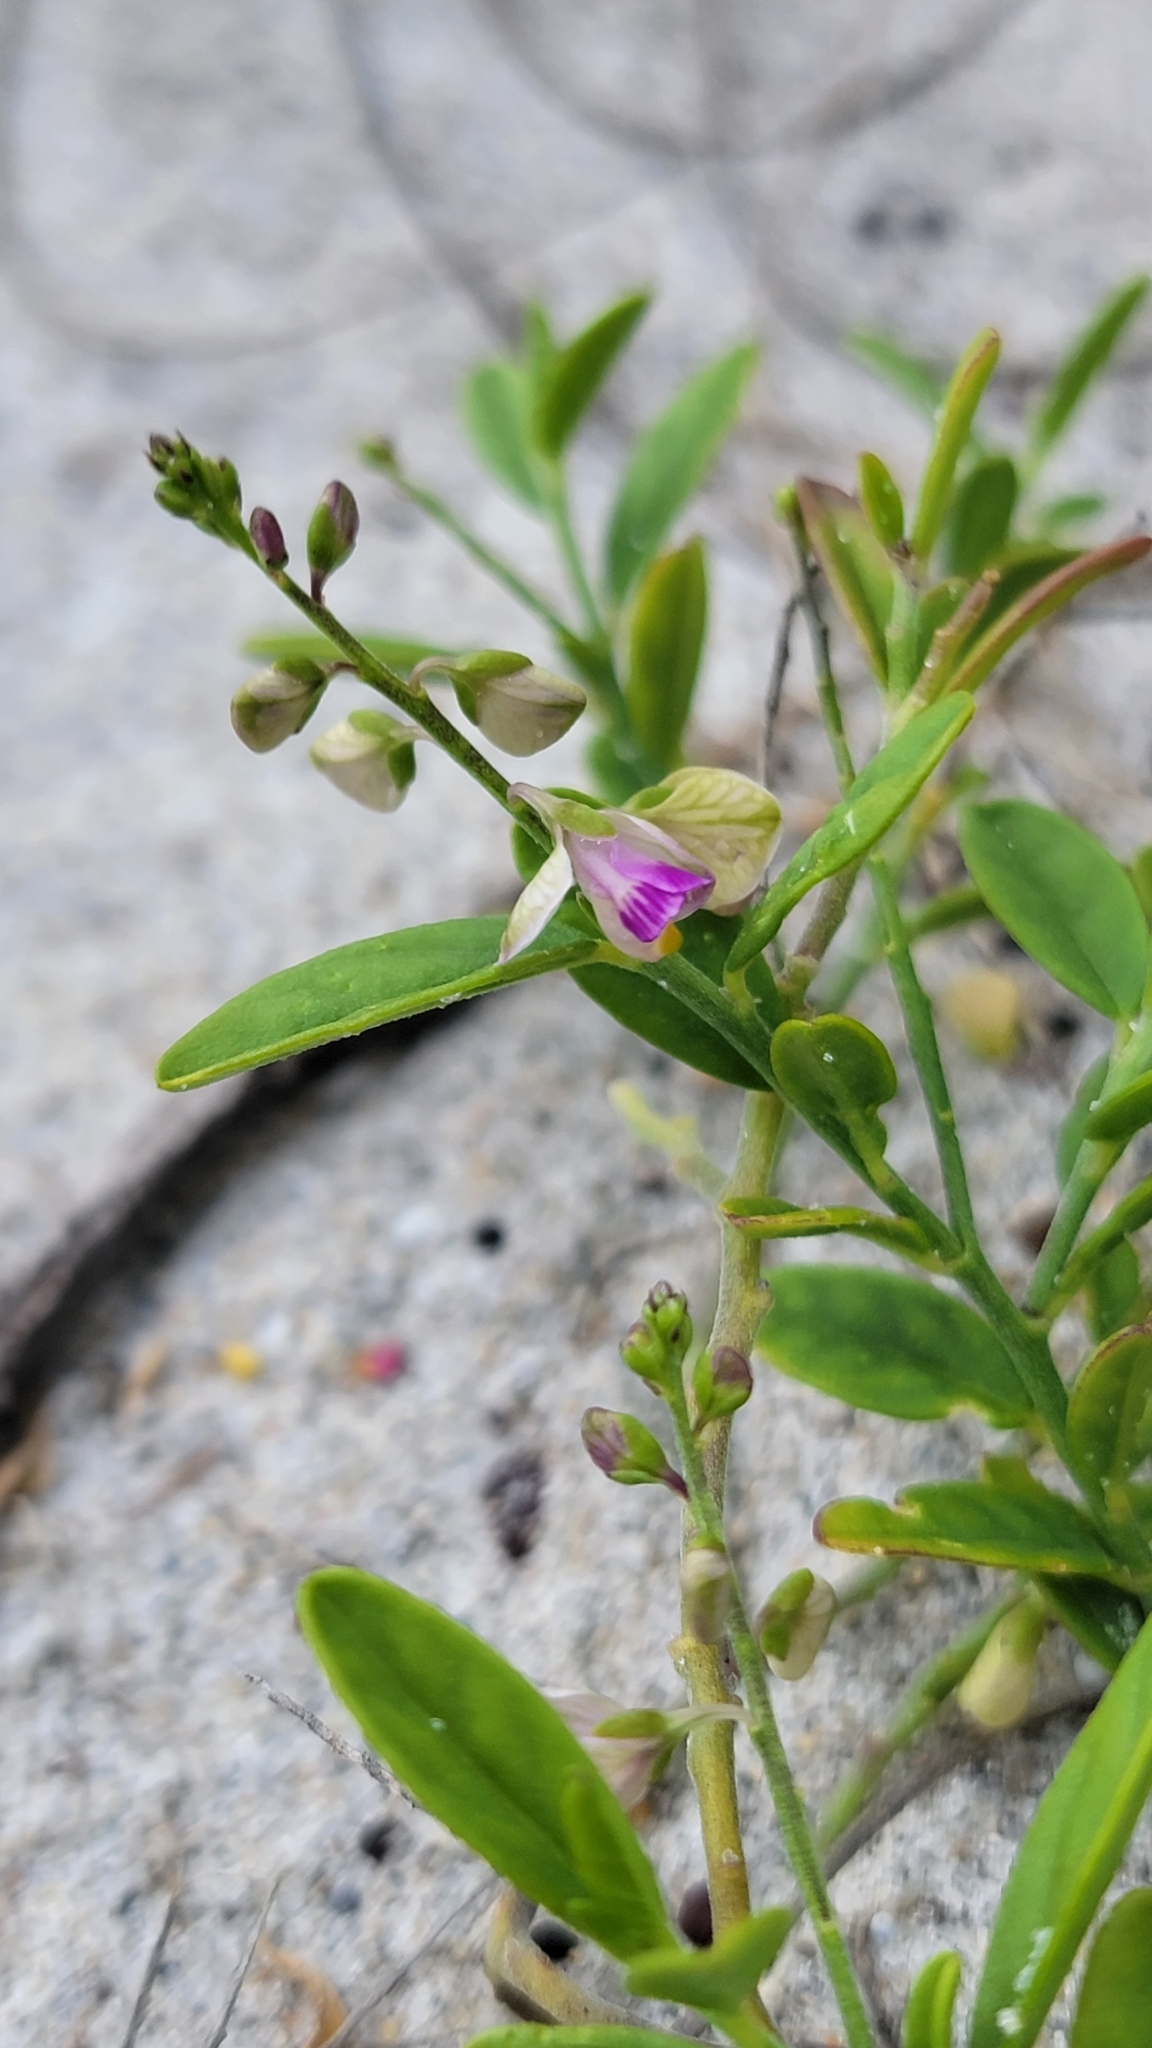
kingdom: Plantae
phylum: Tracheophyta
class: Magnoliopsida
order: Fabales
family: Polygalaceae
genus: Asemeia
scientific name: Asemeia grandiflora
